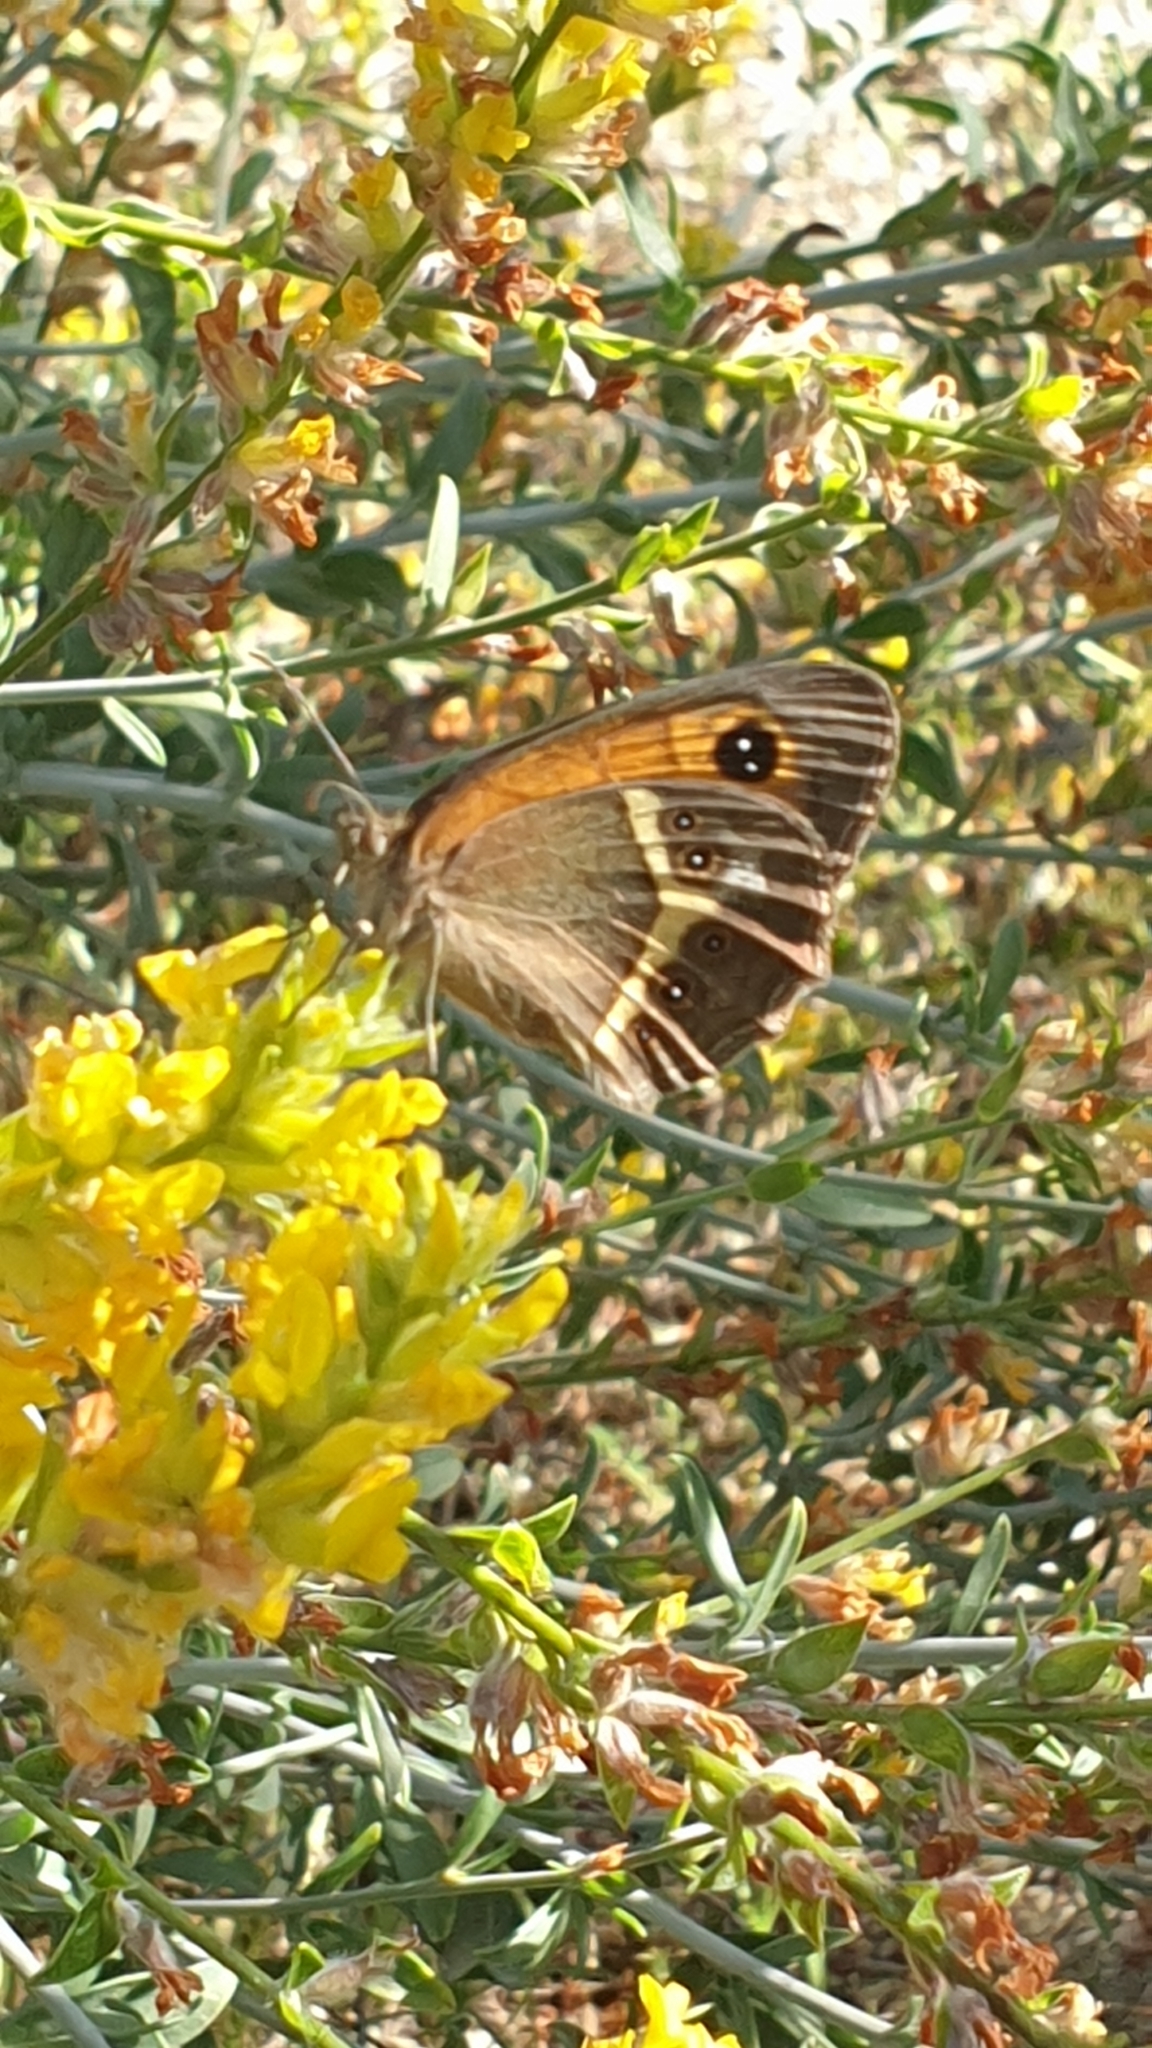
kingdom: Animalia
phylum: Arthropoda
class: Insecta
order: Lepidoptera
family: Nymphalidae
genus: Pyronia
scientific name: Pyronia bathseba
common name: Spanish gatekeeper
